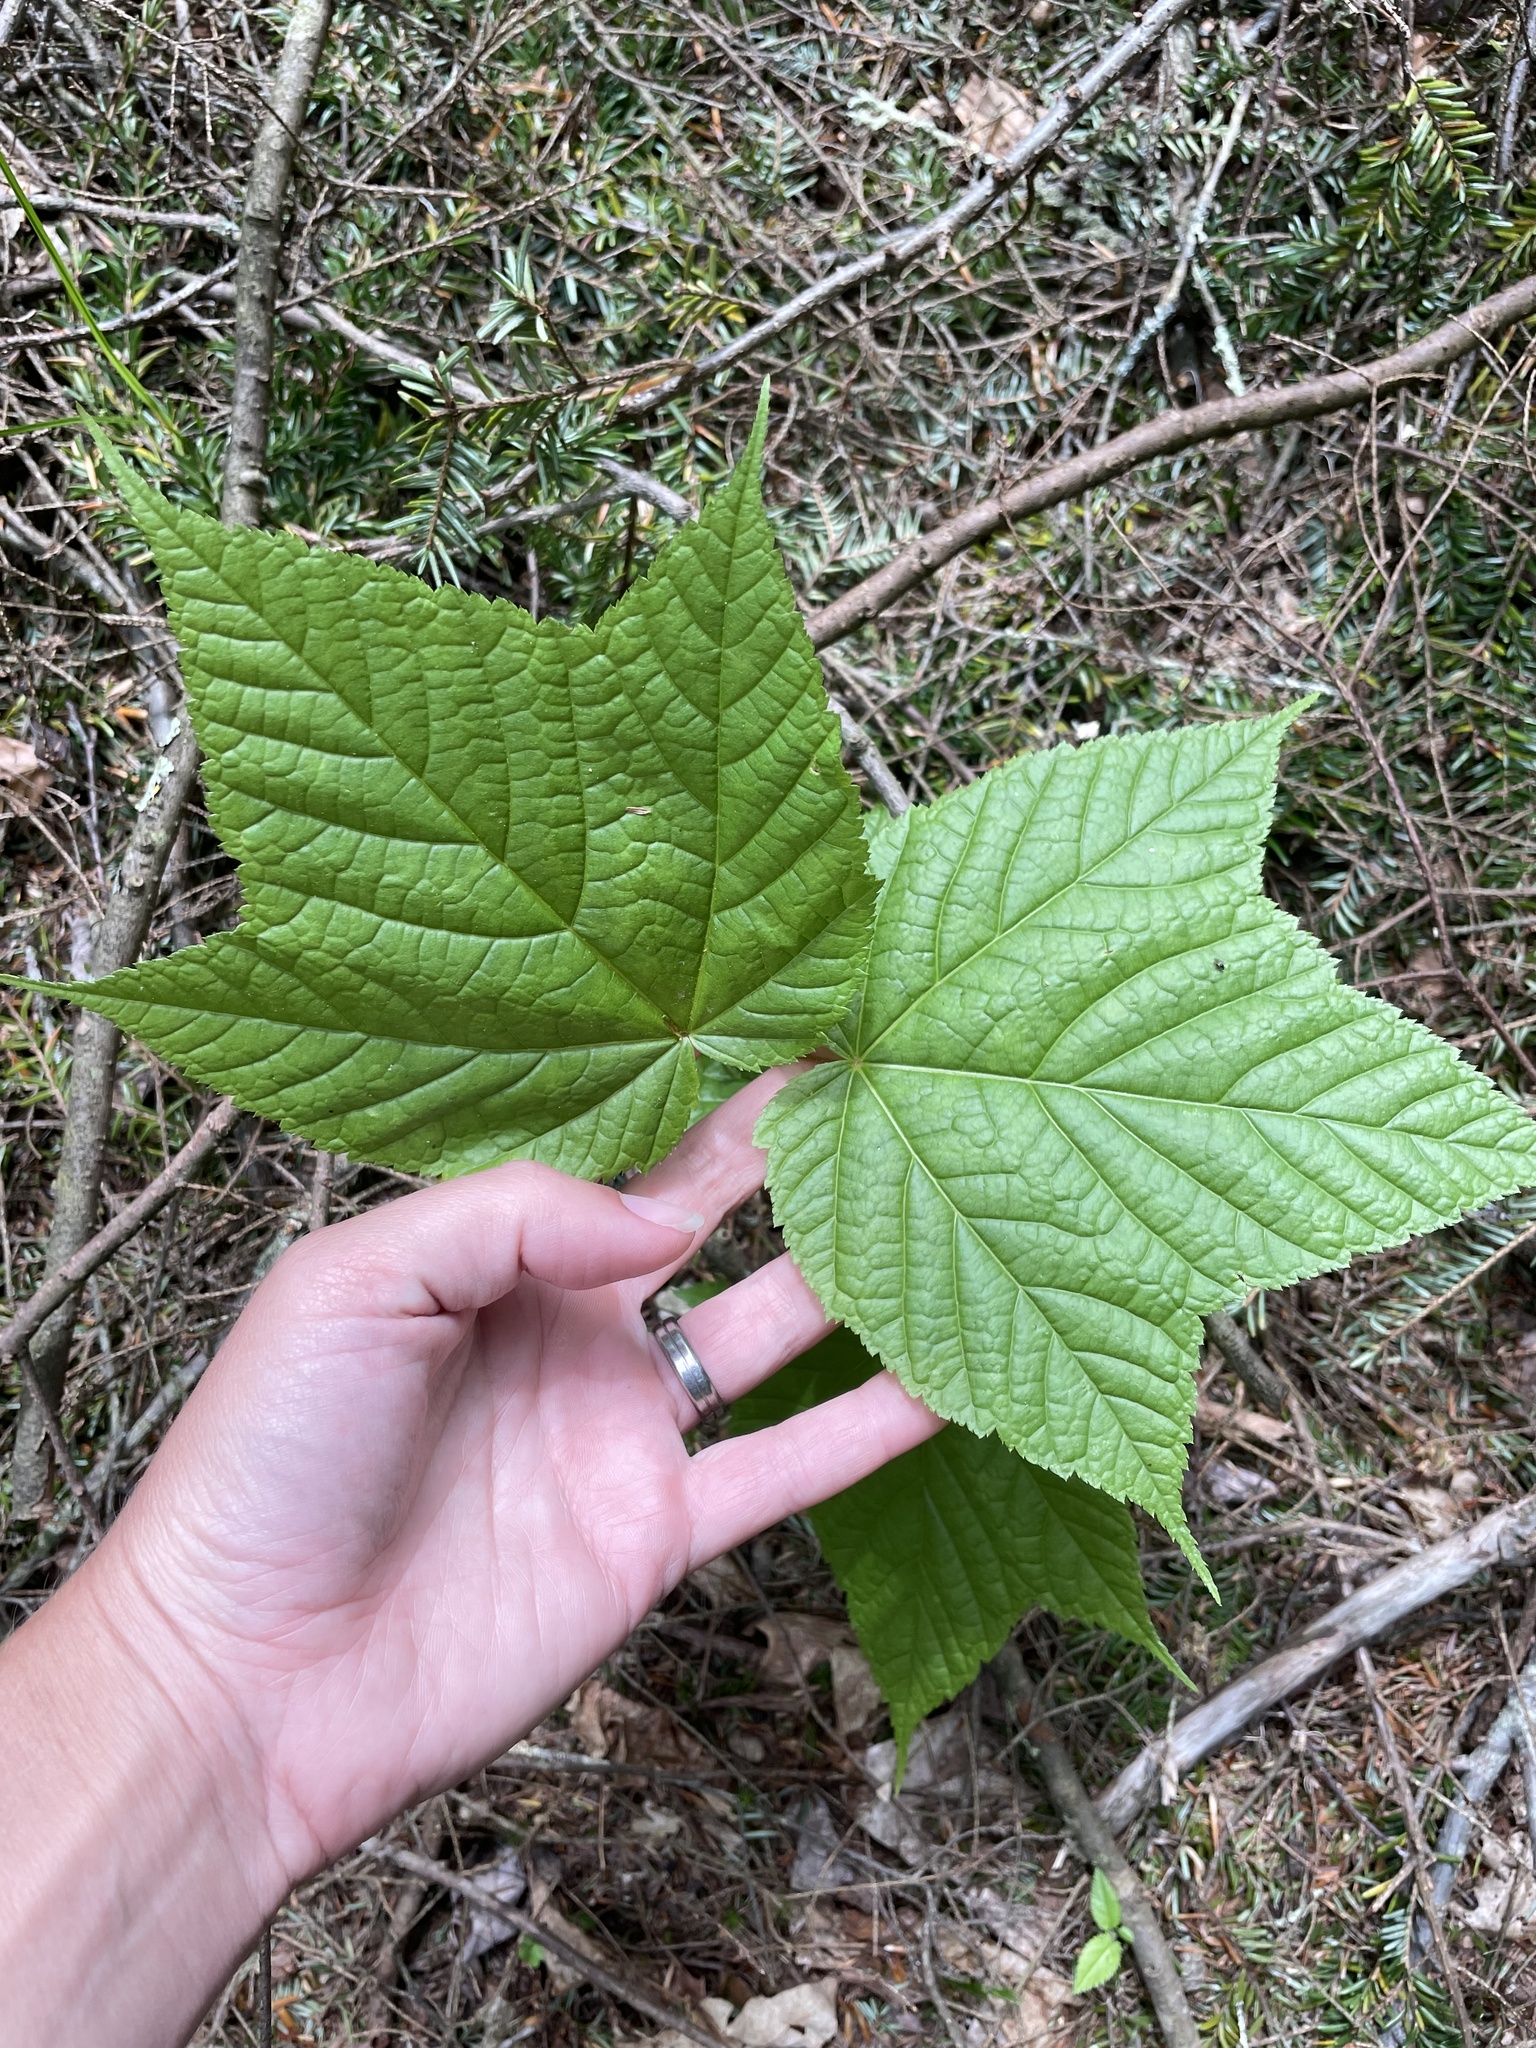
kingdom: Plantae
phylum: Tracheophyta
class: Magnoliopsida
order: Sapindales
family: Sapindaceae
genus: Acer
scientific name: Acer pensylvanicum
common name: Moosewood
